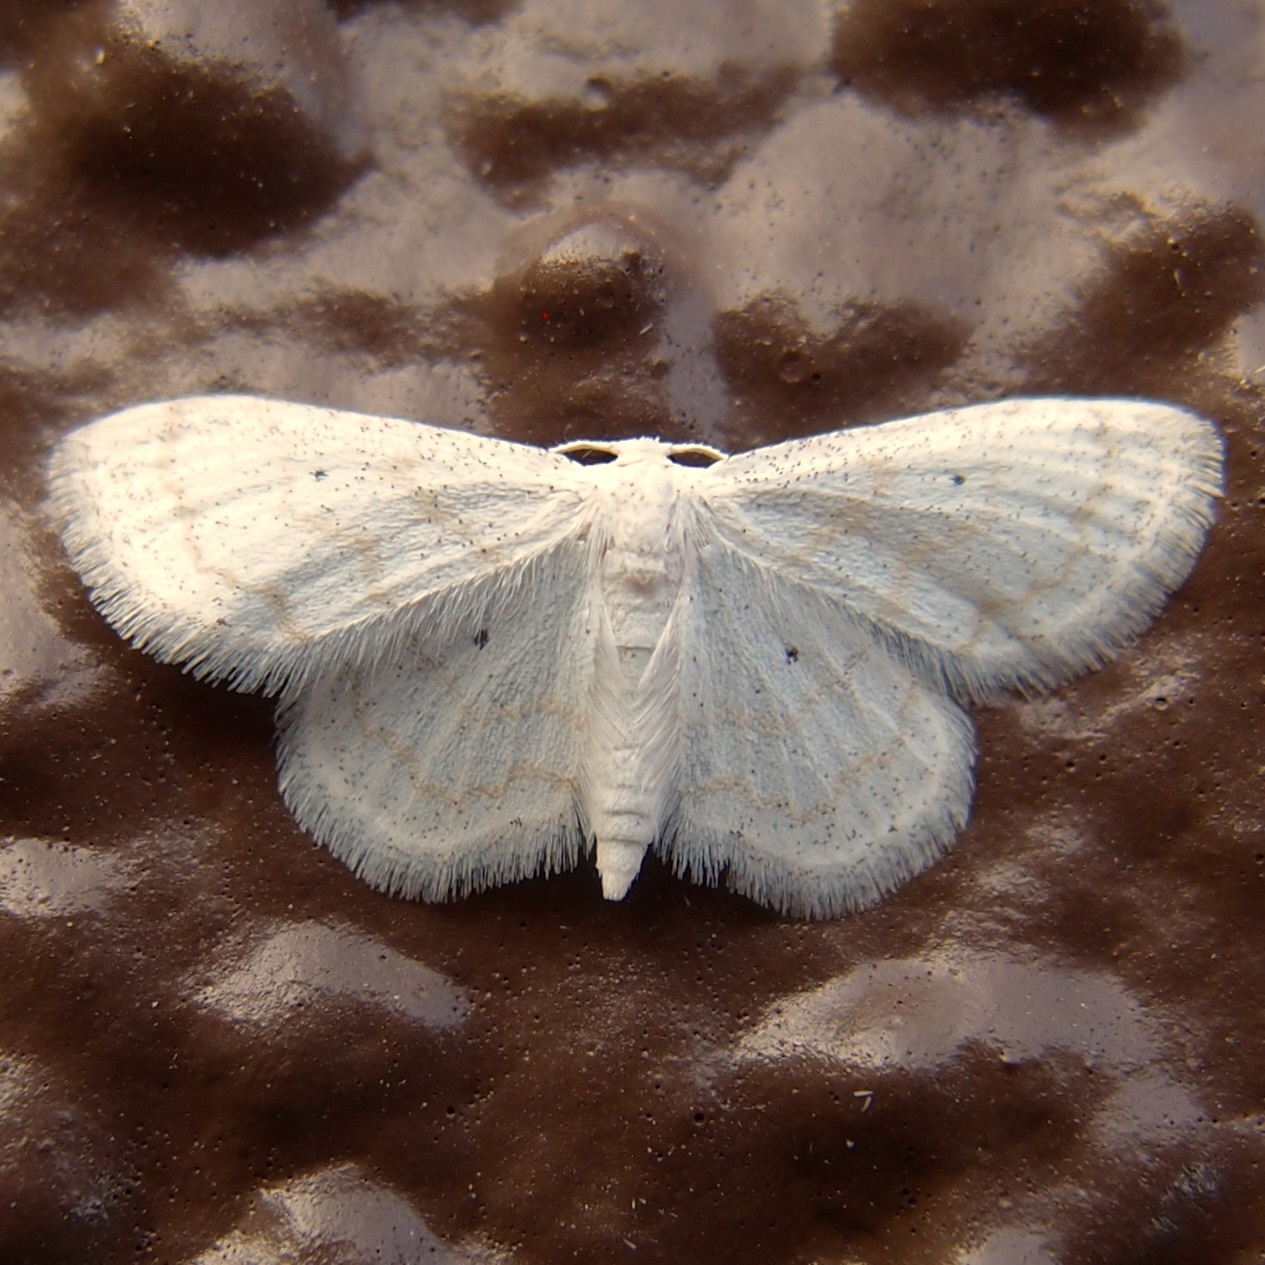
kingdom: Animalia
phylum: Arthropoda
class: Insecta
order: Lepidoptera
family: Geometridae
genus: Lobocleta
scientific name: Lobocleta peralbata
